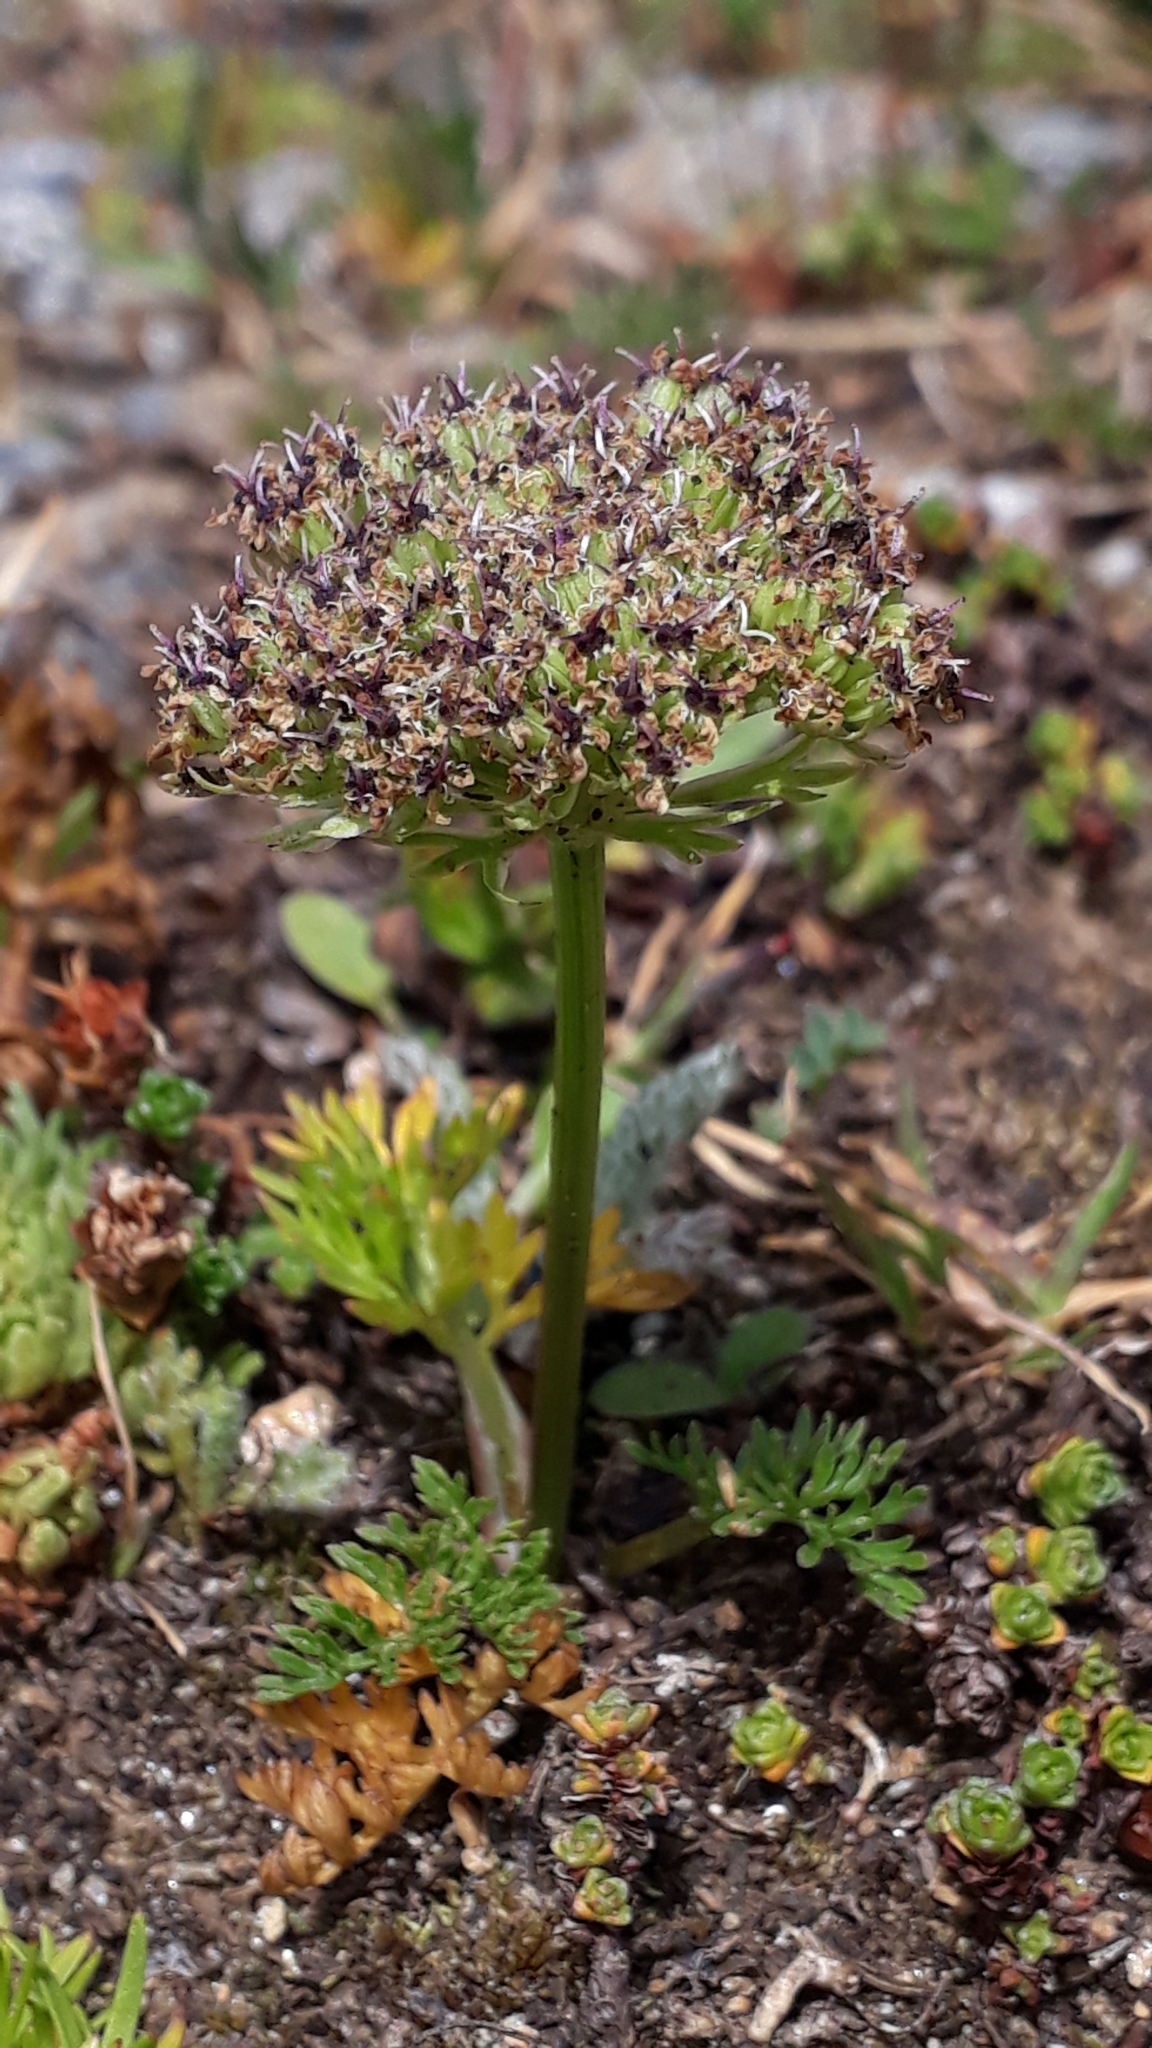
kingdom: Plantae
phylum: Tracheophyta
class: Magnoliopsida
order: Apiales
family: Apiaceae
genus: Pachypleurum
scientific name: Pachypleurum mutellinoides
